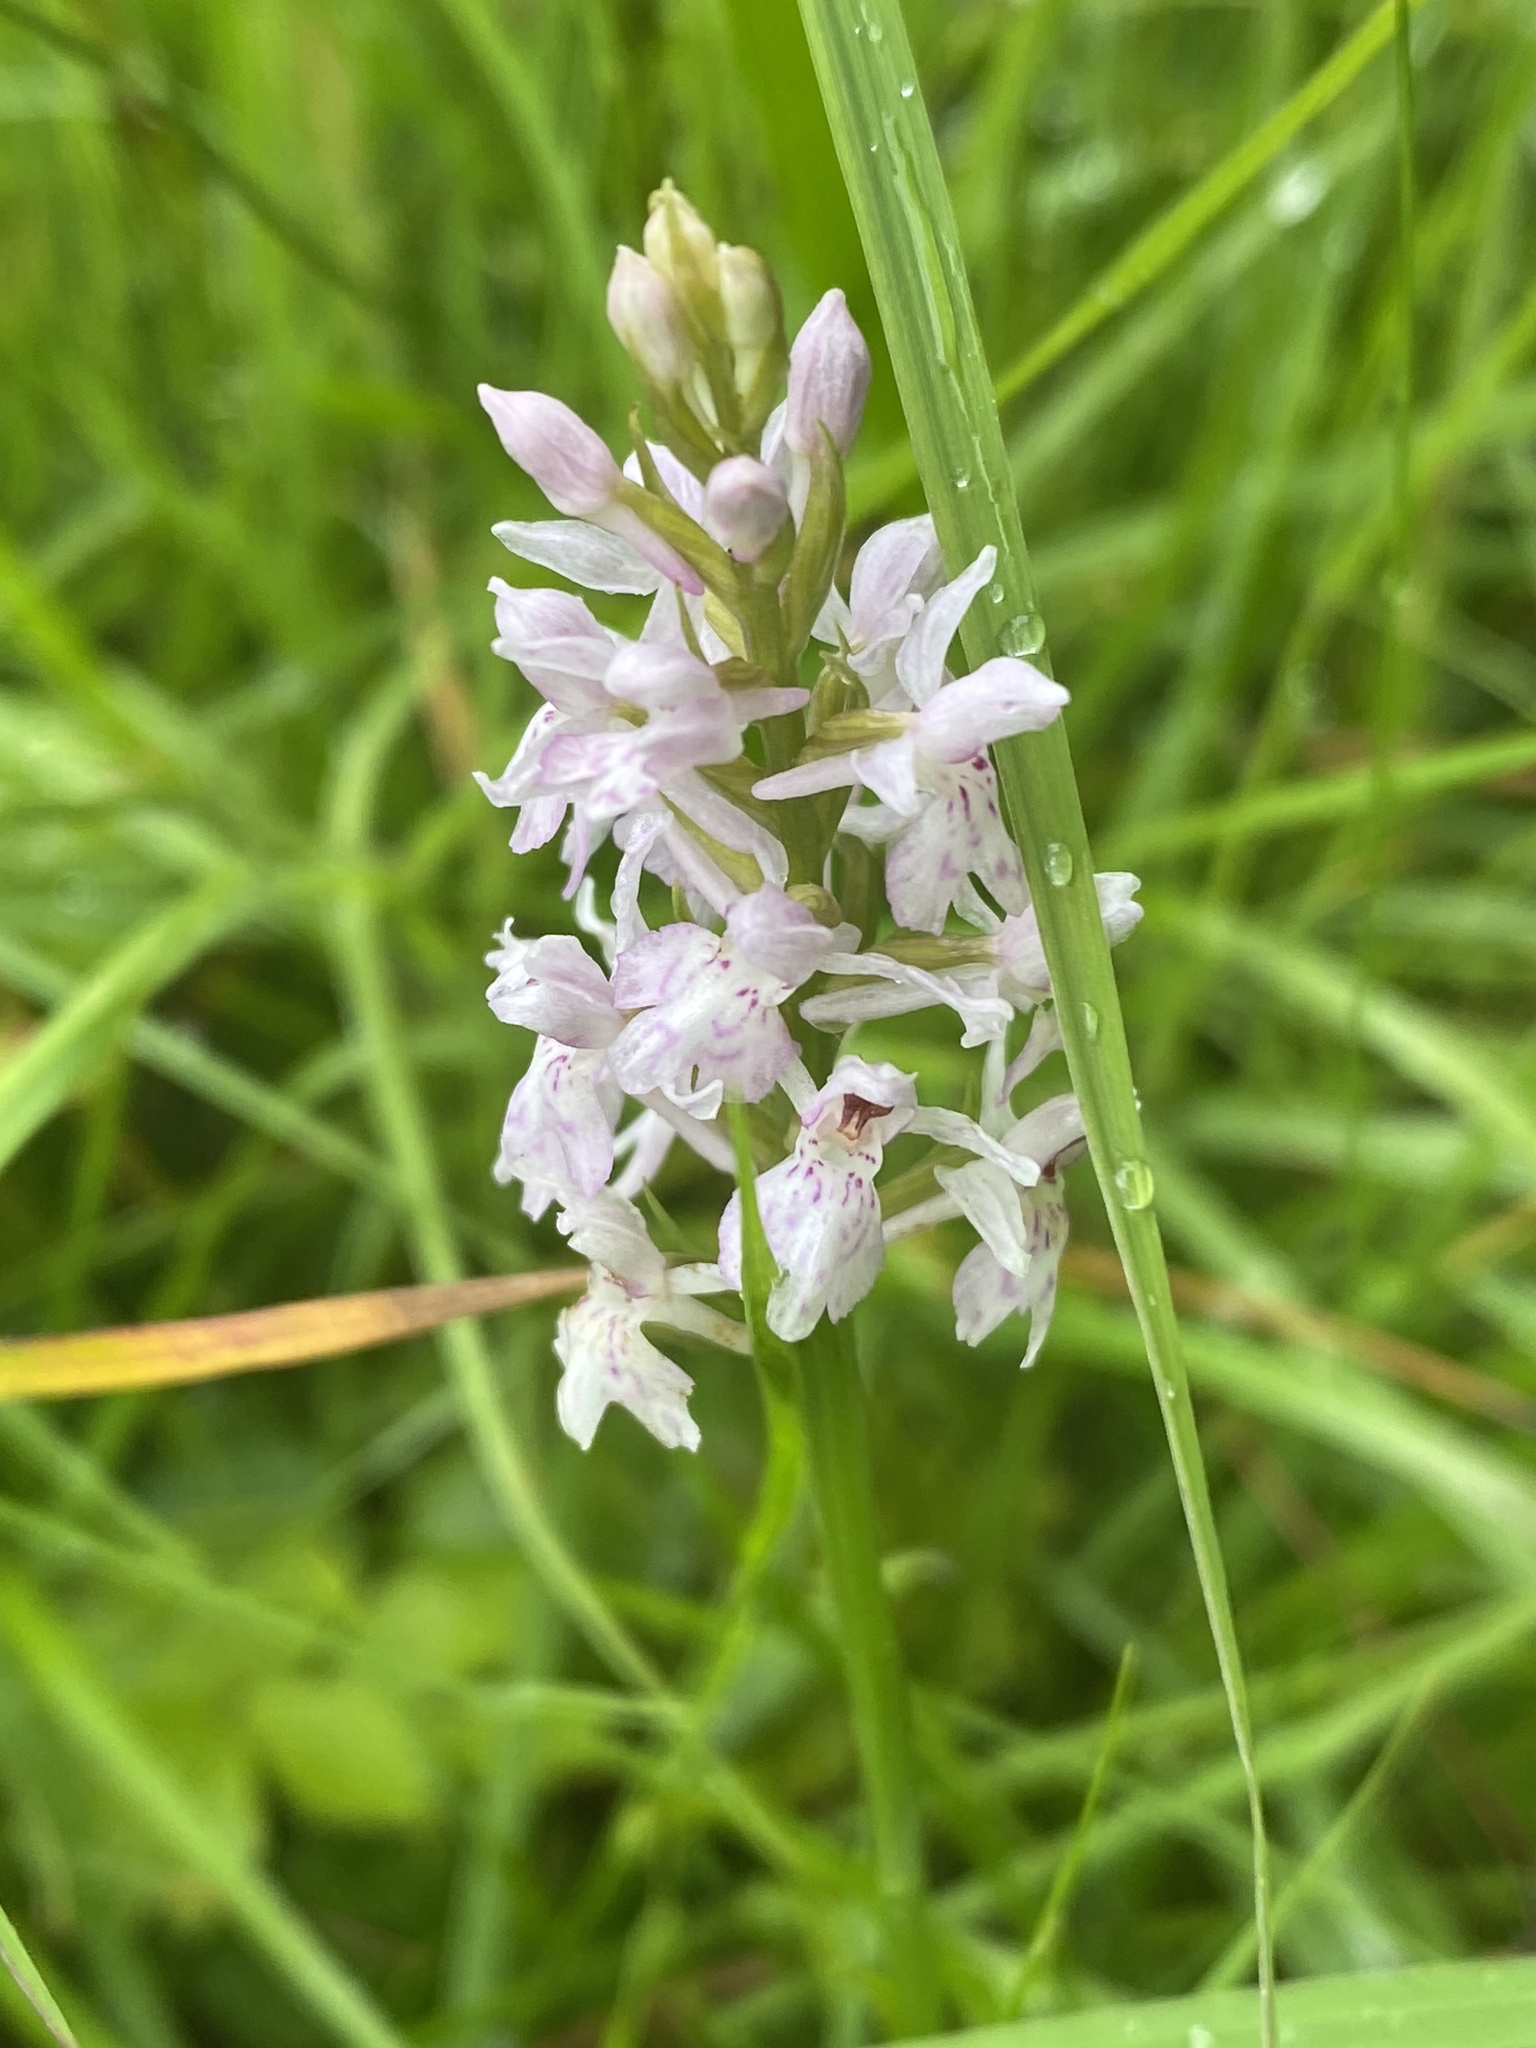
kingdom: Plantae
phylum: Tracheophyta
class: Liliopsida
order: Asparagales
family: Orchidaceae
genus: Dactylorhiza
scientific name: Dactylorhiza maculata
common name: Heath spotted-orchid
